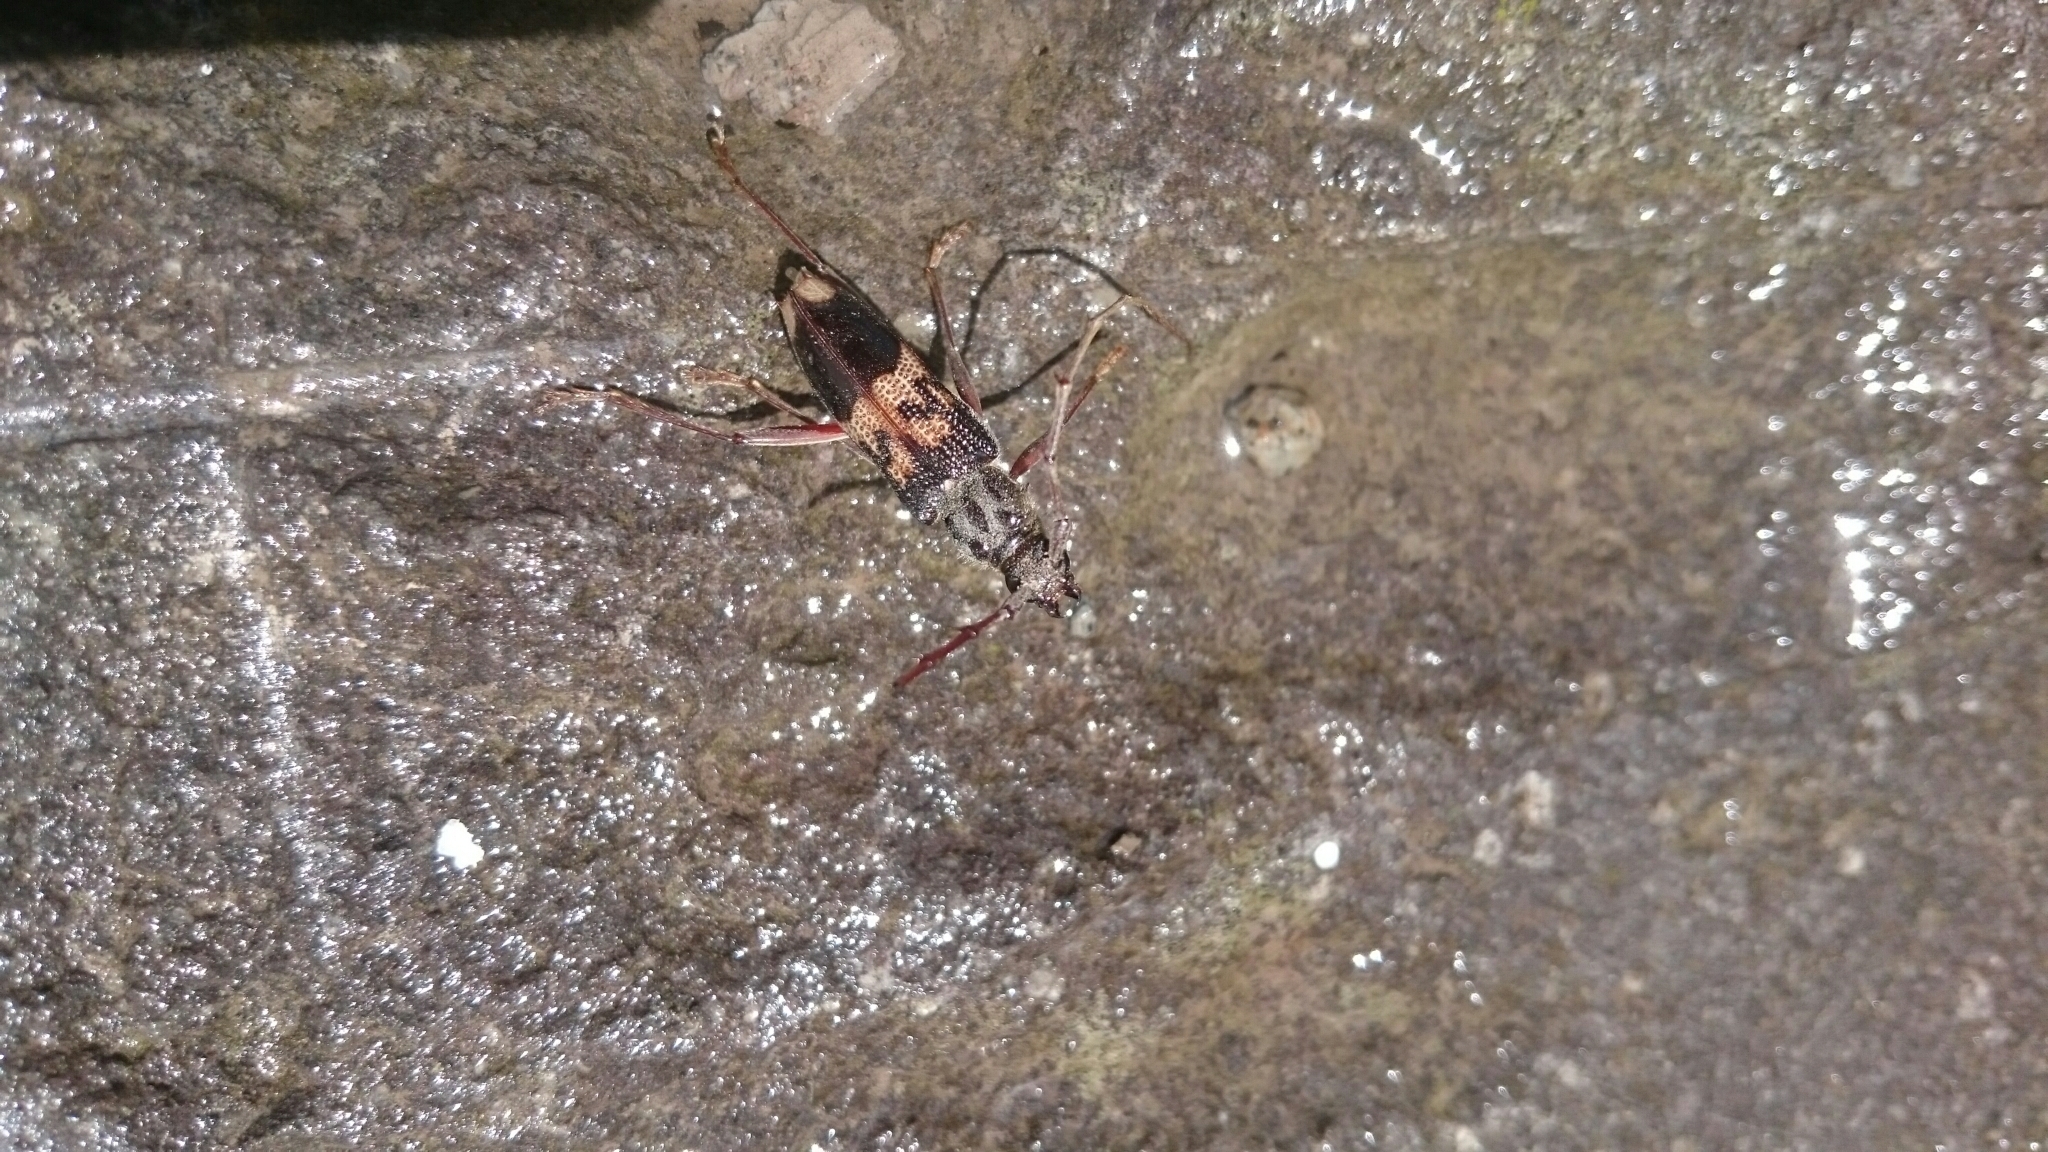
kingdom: Animalia
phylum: Arthropoda
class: Insecta
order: Coleoptera
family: Cerambycidae
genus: Phoracantha
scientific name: Phoracantha semipunctata
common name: Eucalyptus longhorn borer
